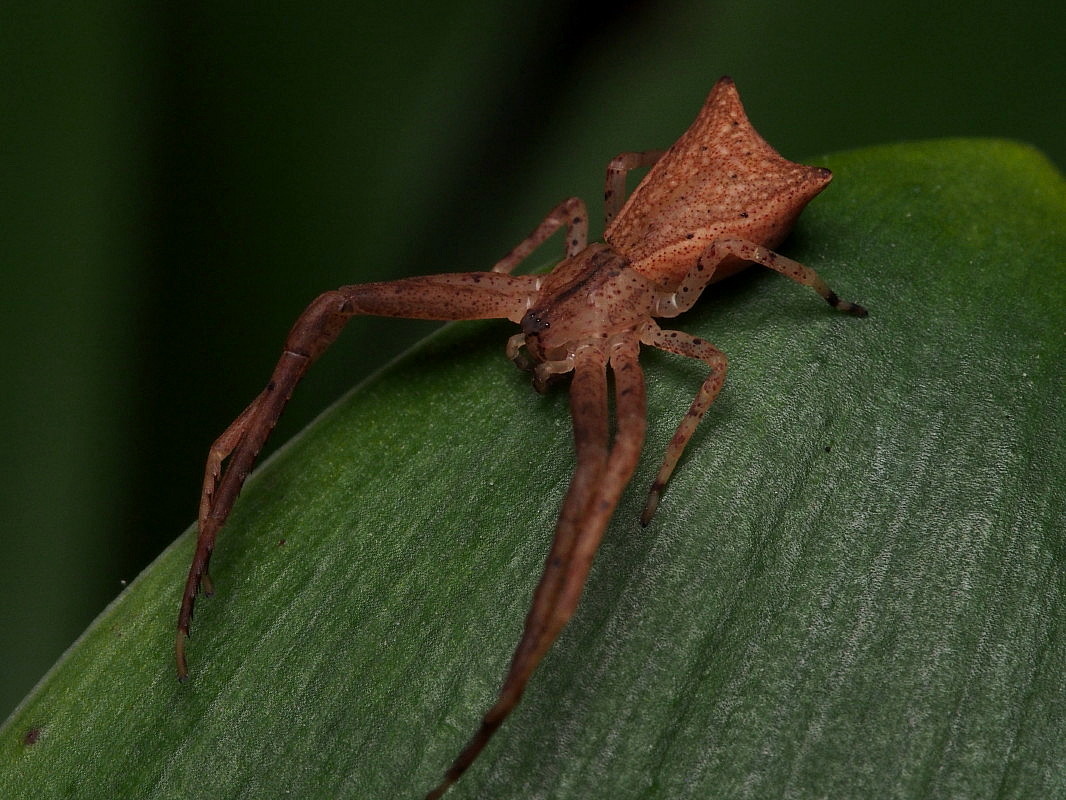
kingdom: Animalia
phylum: Arthropoda
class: Arachnida
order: Araneae
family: Thomisidae
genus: Sidymella
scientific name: Sidymella trapezia
